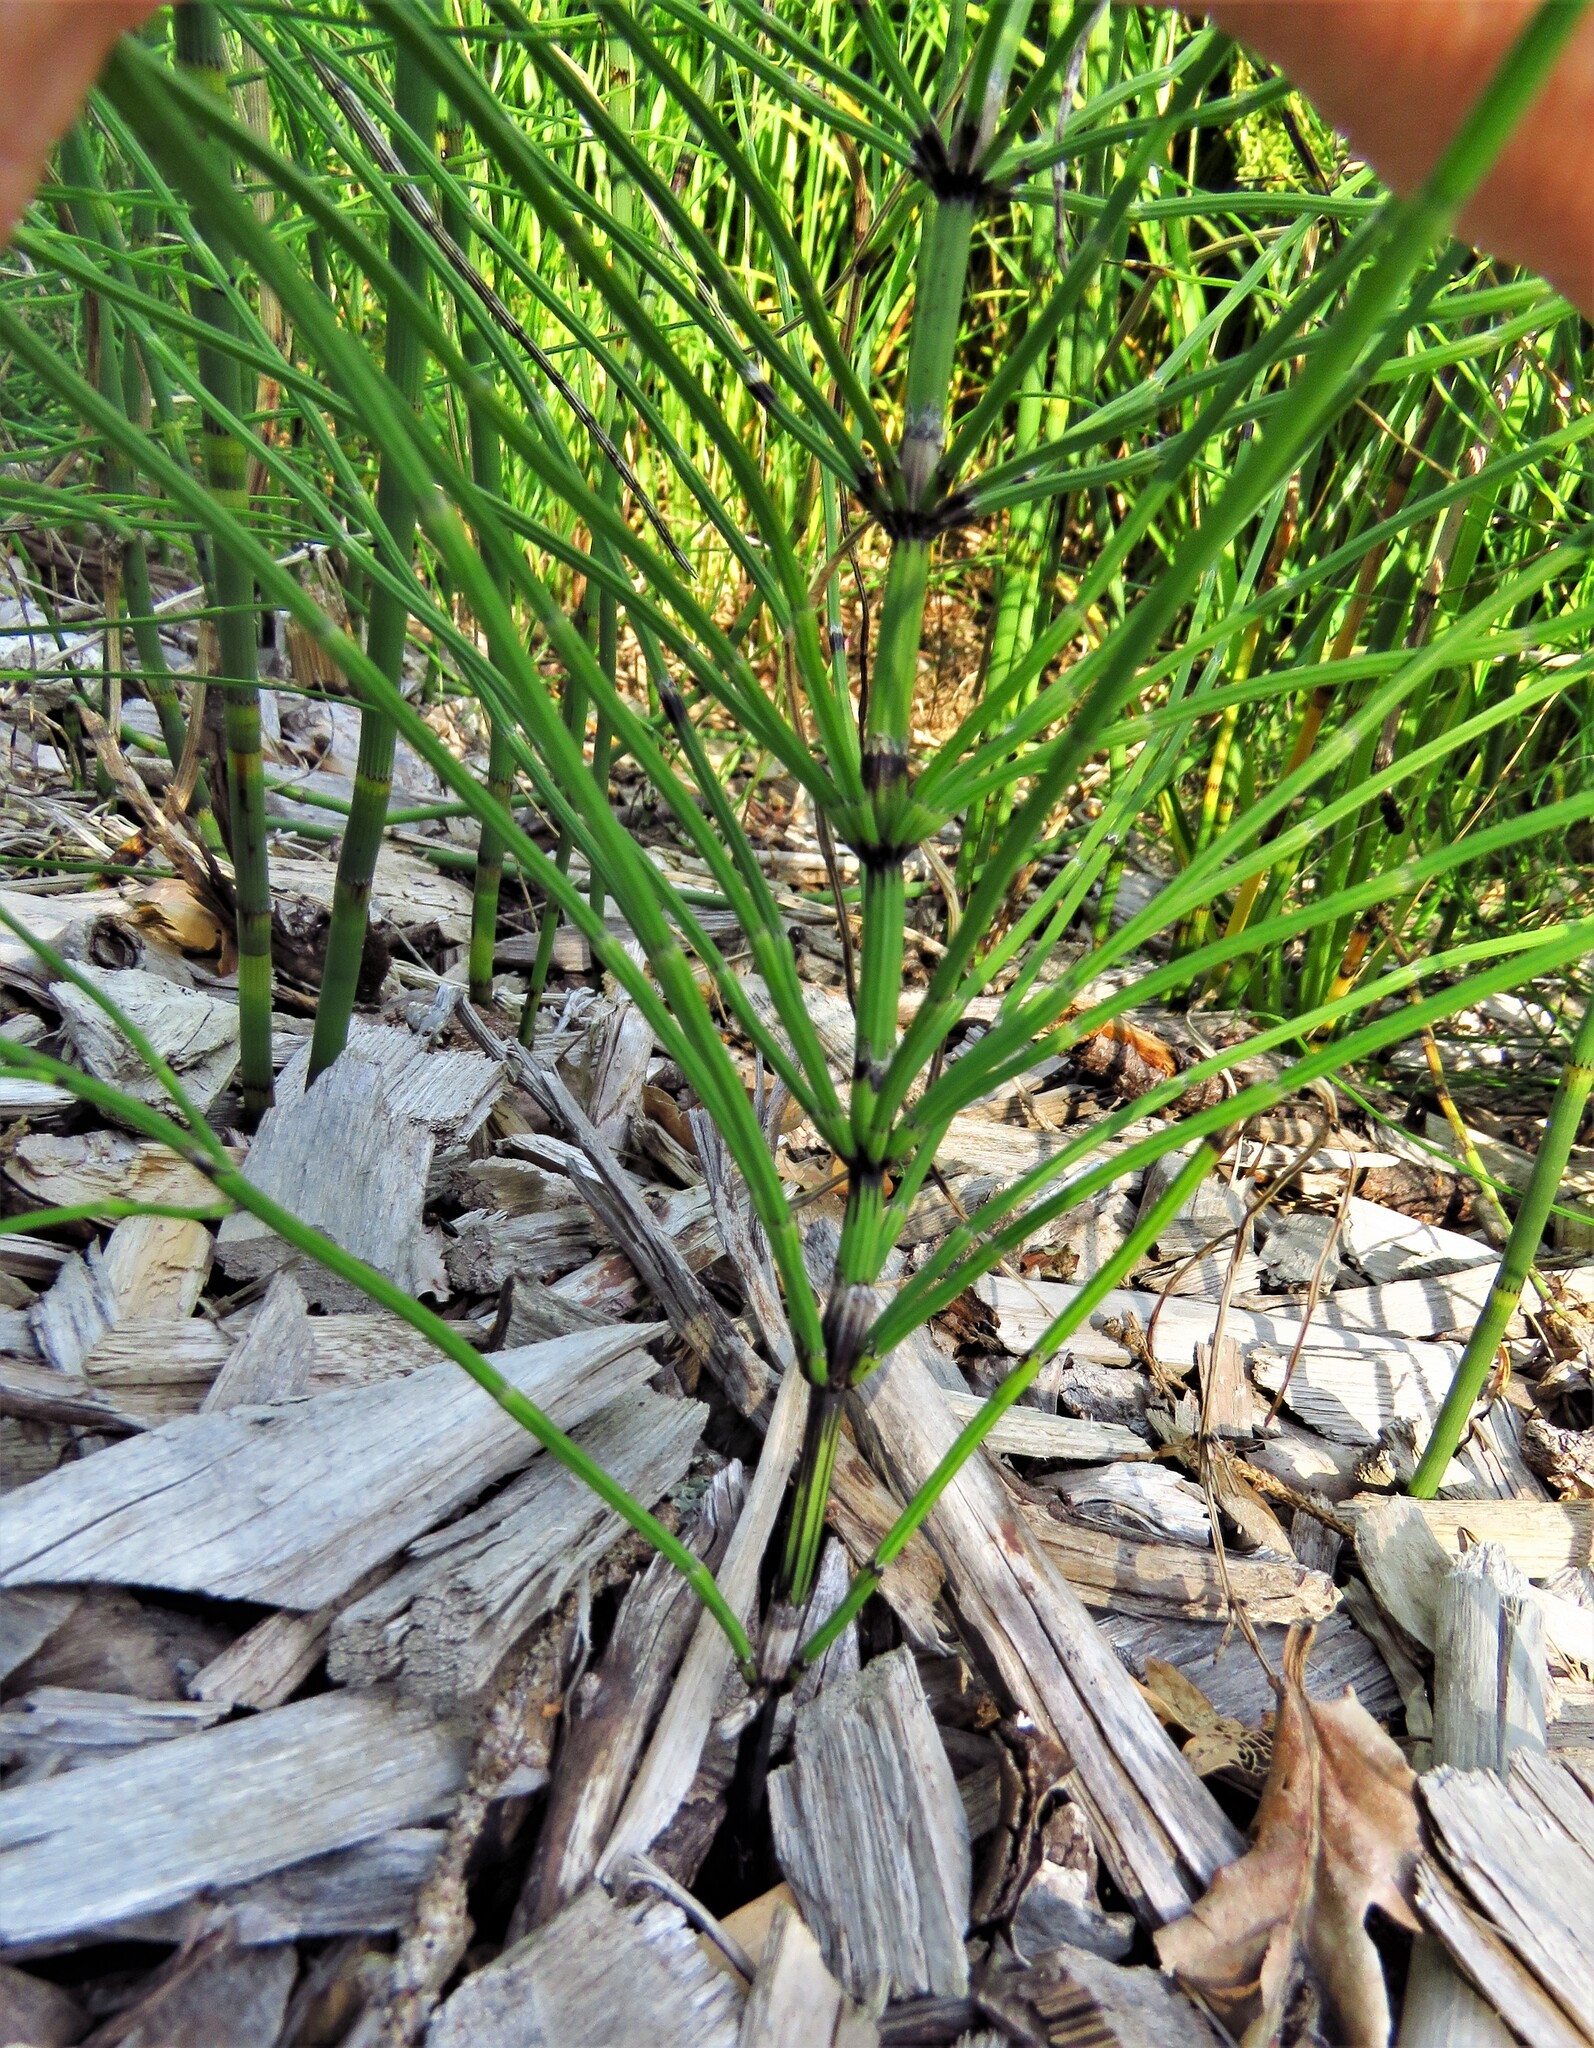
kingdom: Plantae
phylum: Tracheophyta
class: Polypodiopsida
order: Equisetales
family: Equisetaceae
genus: Equisetum
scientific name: Equisetum arvense
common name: Field horsetail
